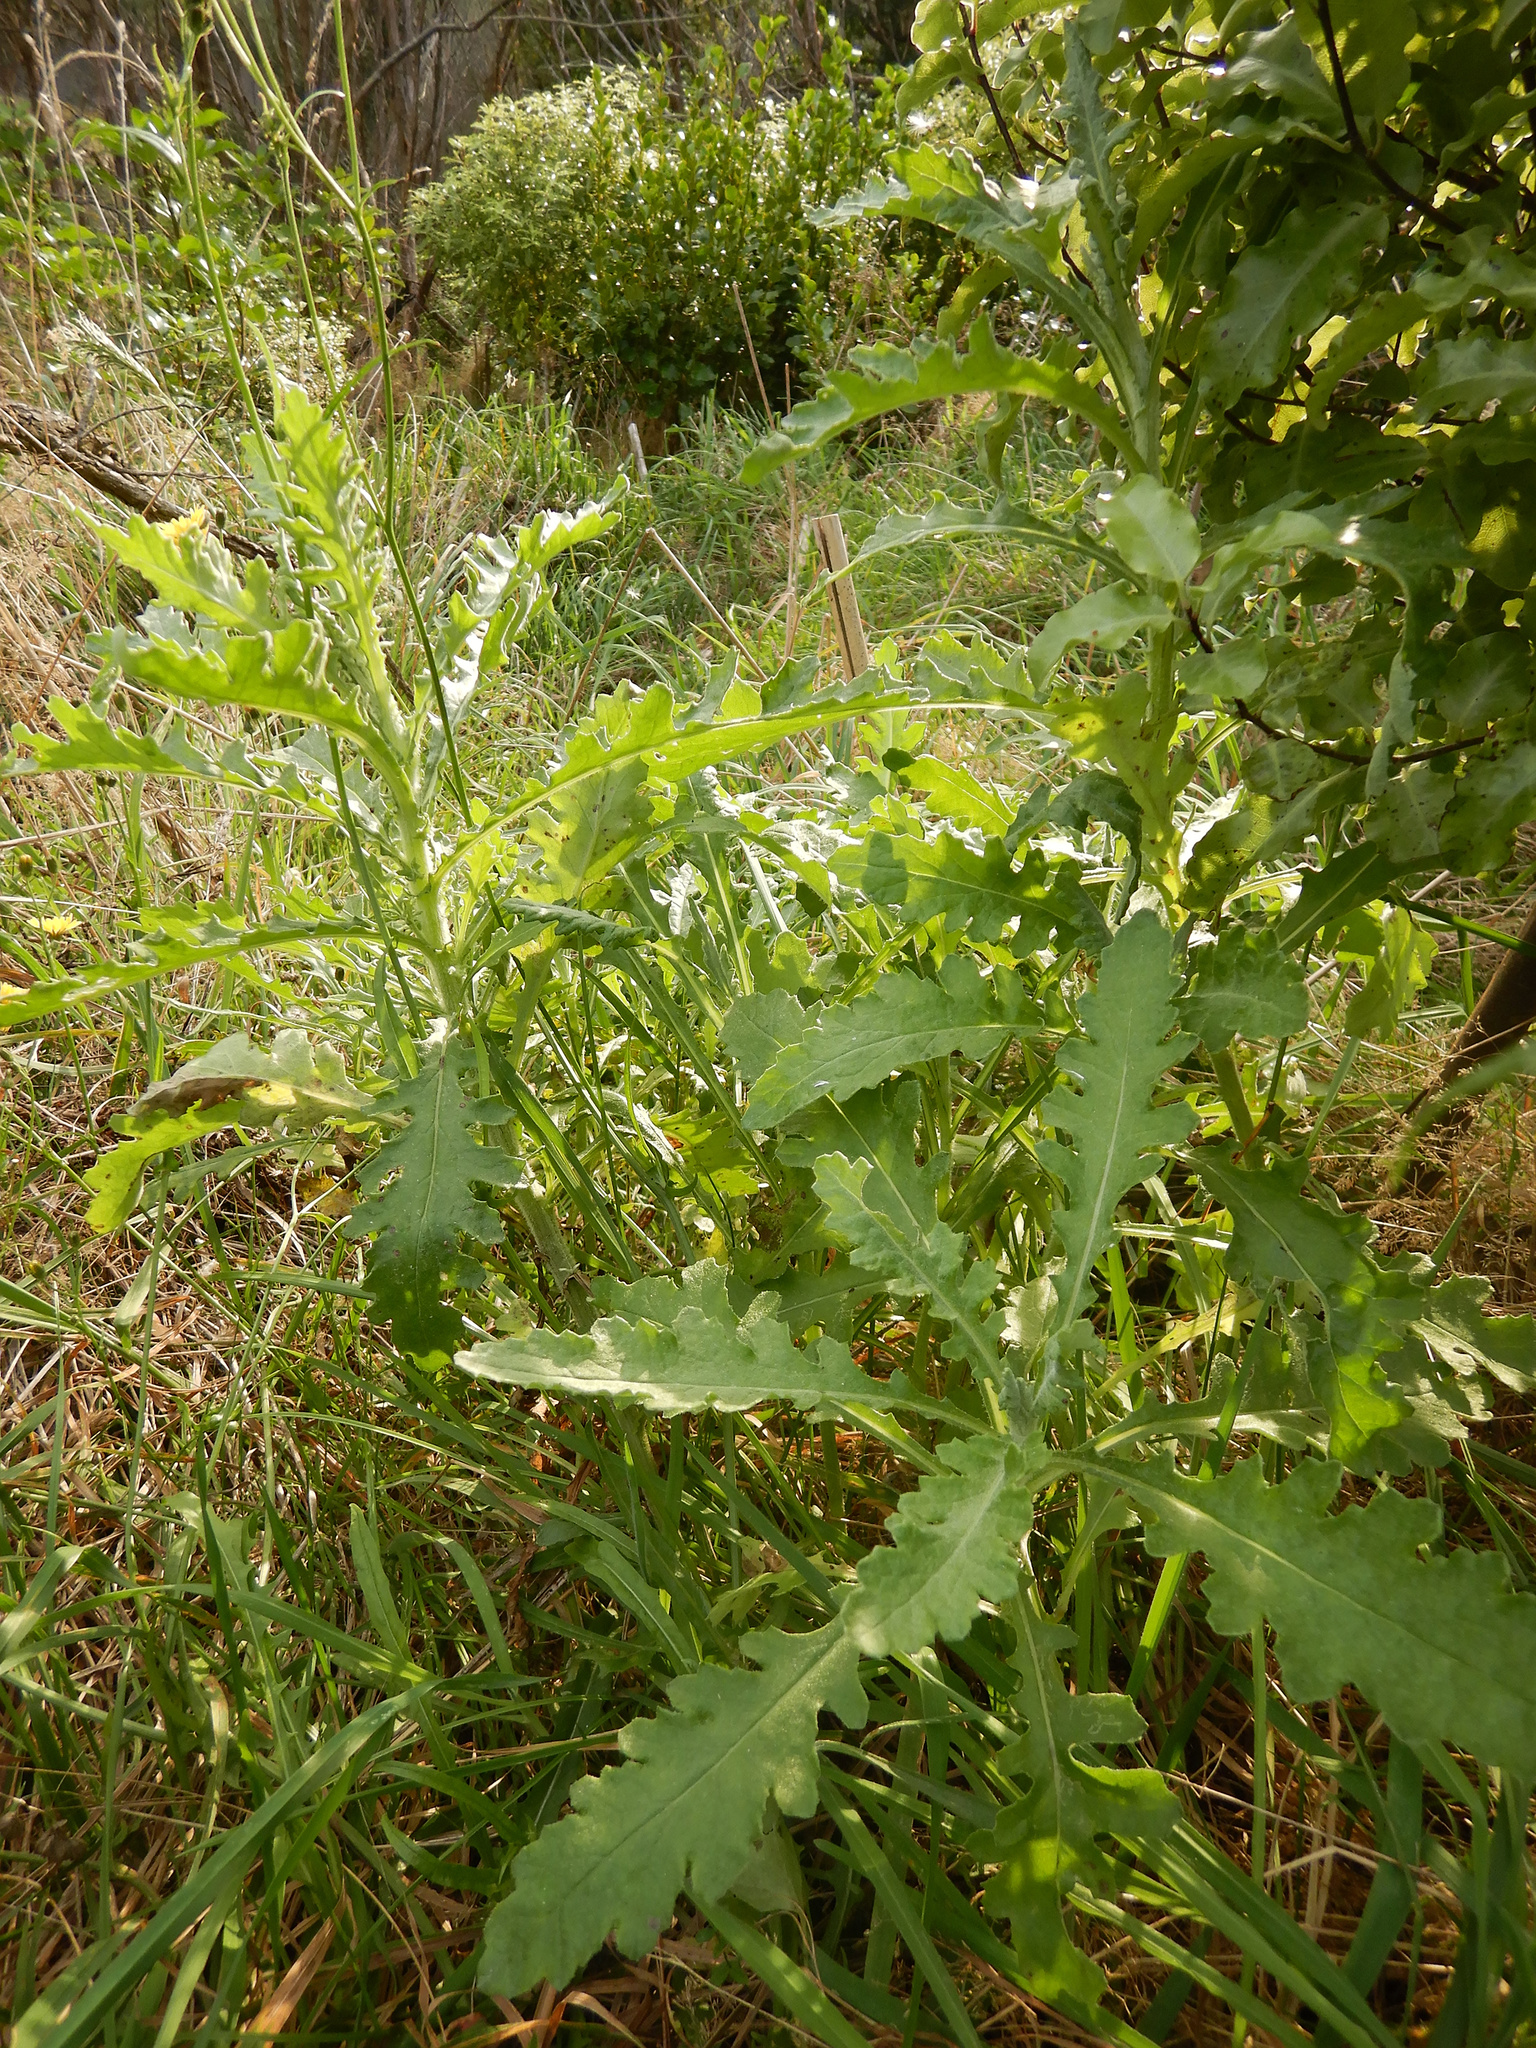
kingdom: Plantae
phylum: Tracheophyta
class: Magnoliopsida
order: Asterales
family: Asteraceae
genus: Senecio
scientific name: Senecio glomeratus
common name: Cutleaf burnweed
